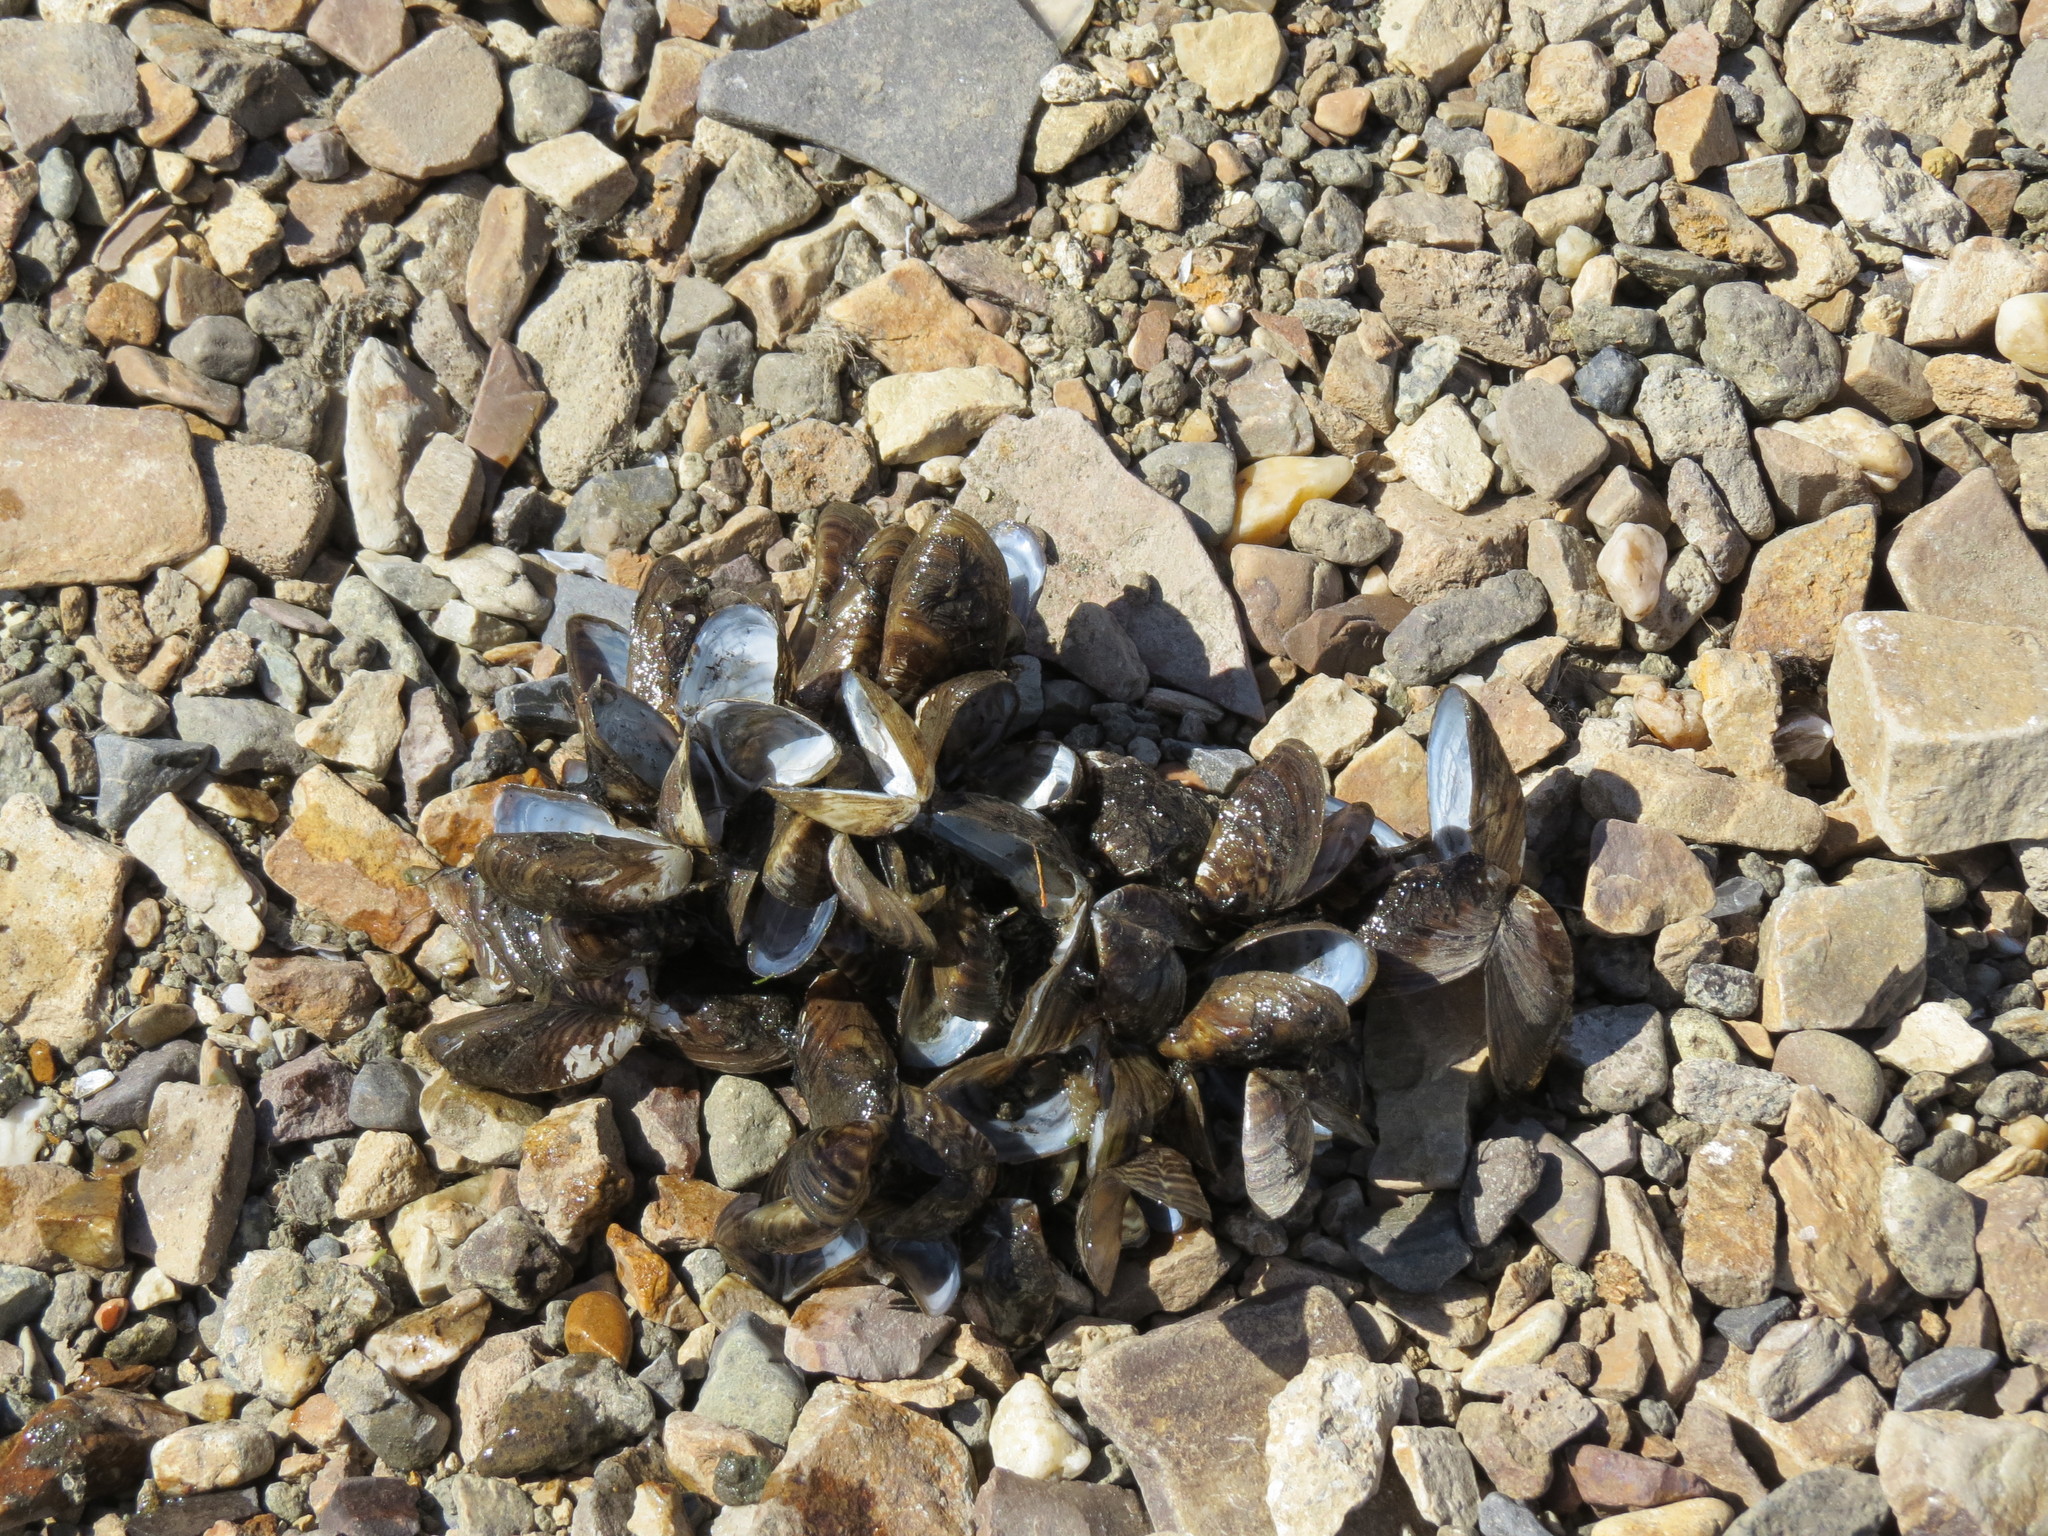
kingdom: Animalia
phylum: Mollusca
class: Bivalvia
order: Myida
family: Dreissenidae
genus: Dreissena
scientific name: Dreissena polymorpha
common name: Zebra mussel
